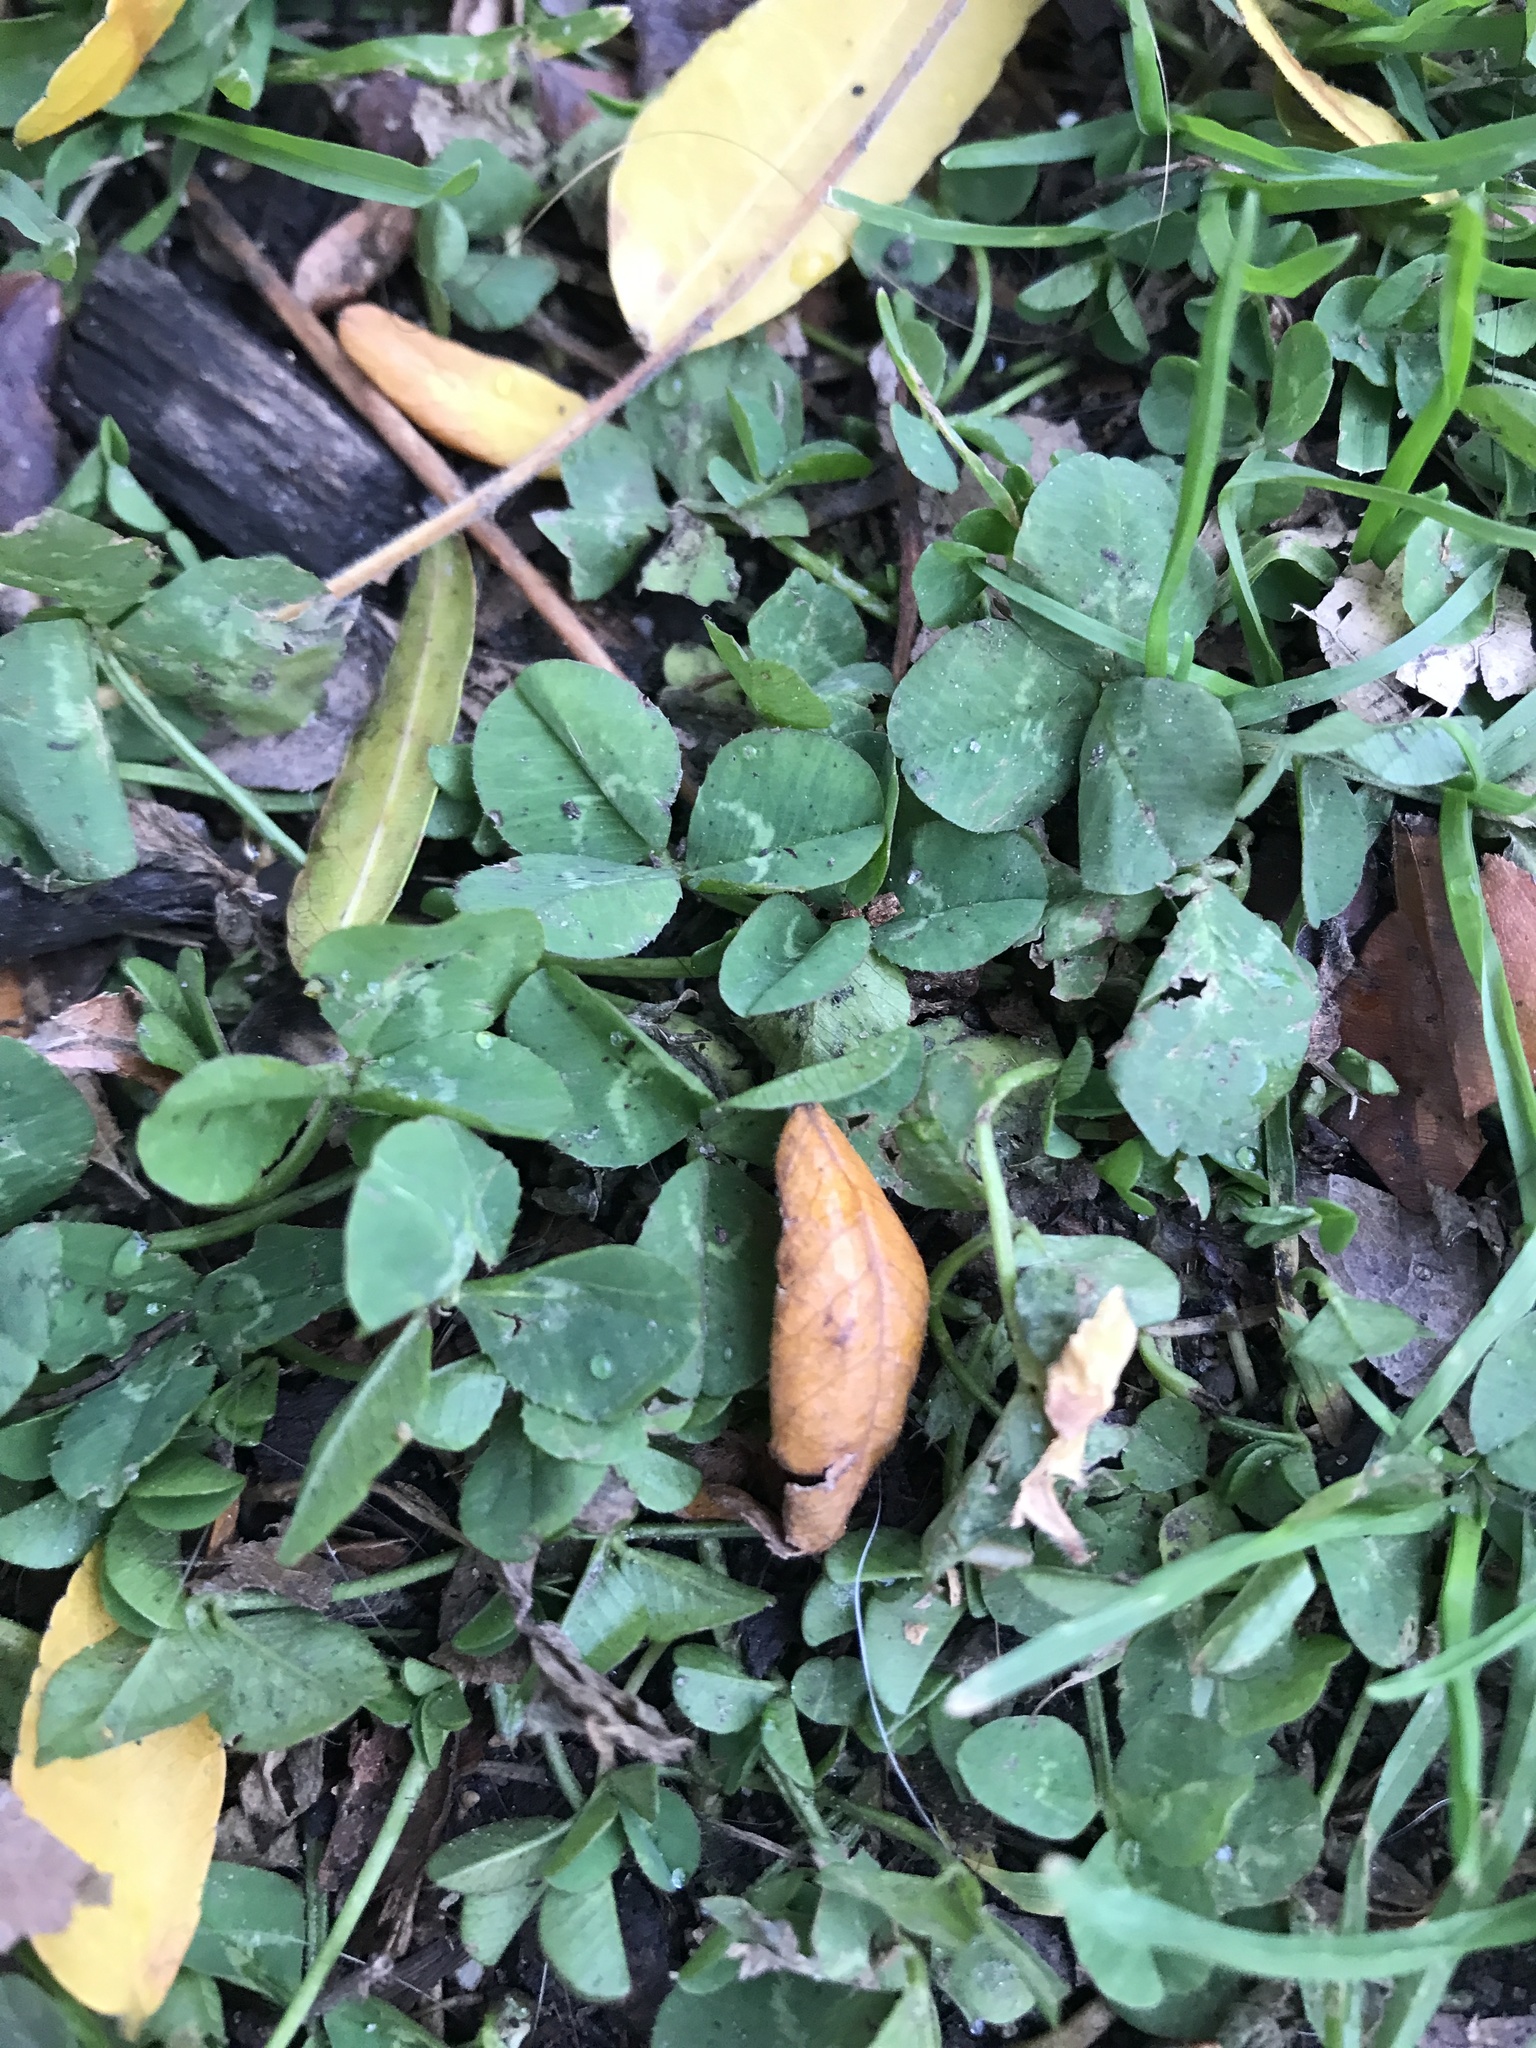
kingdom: Plantae
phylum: Tracheophyta
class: Magnoliopsida
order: Fabales
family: Fabaceae
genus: Trifolium
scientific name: Trifolium repens
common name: White clover
